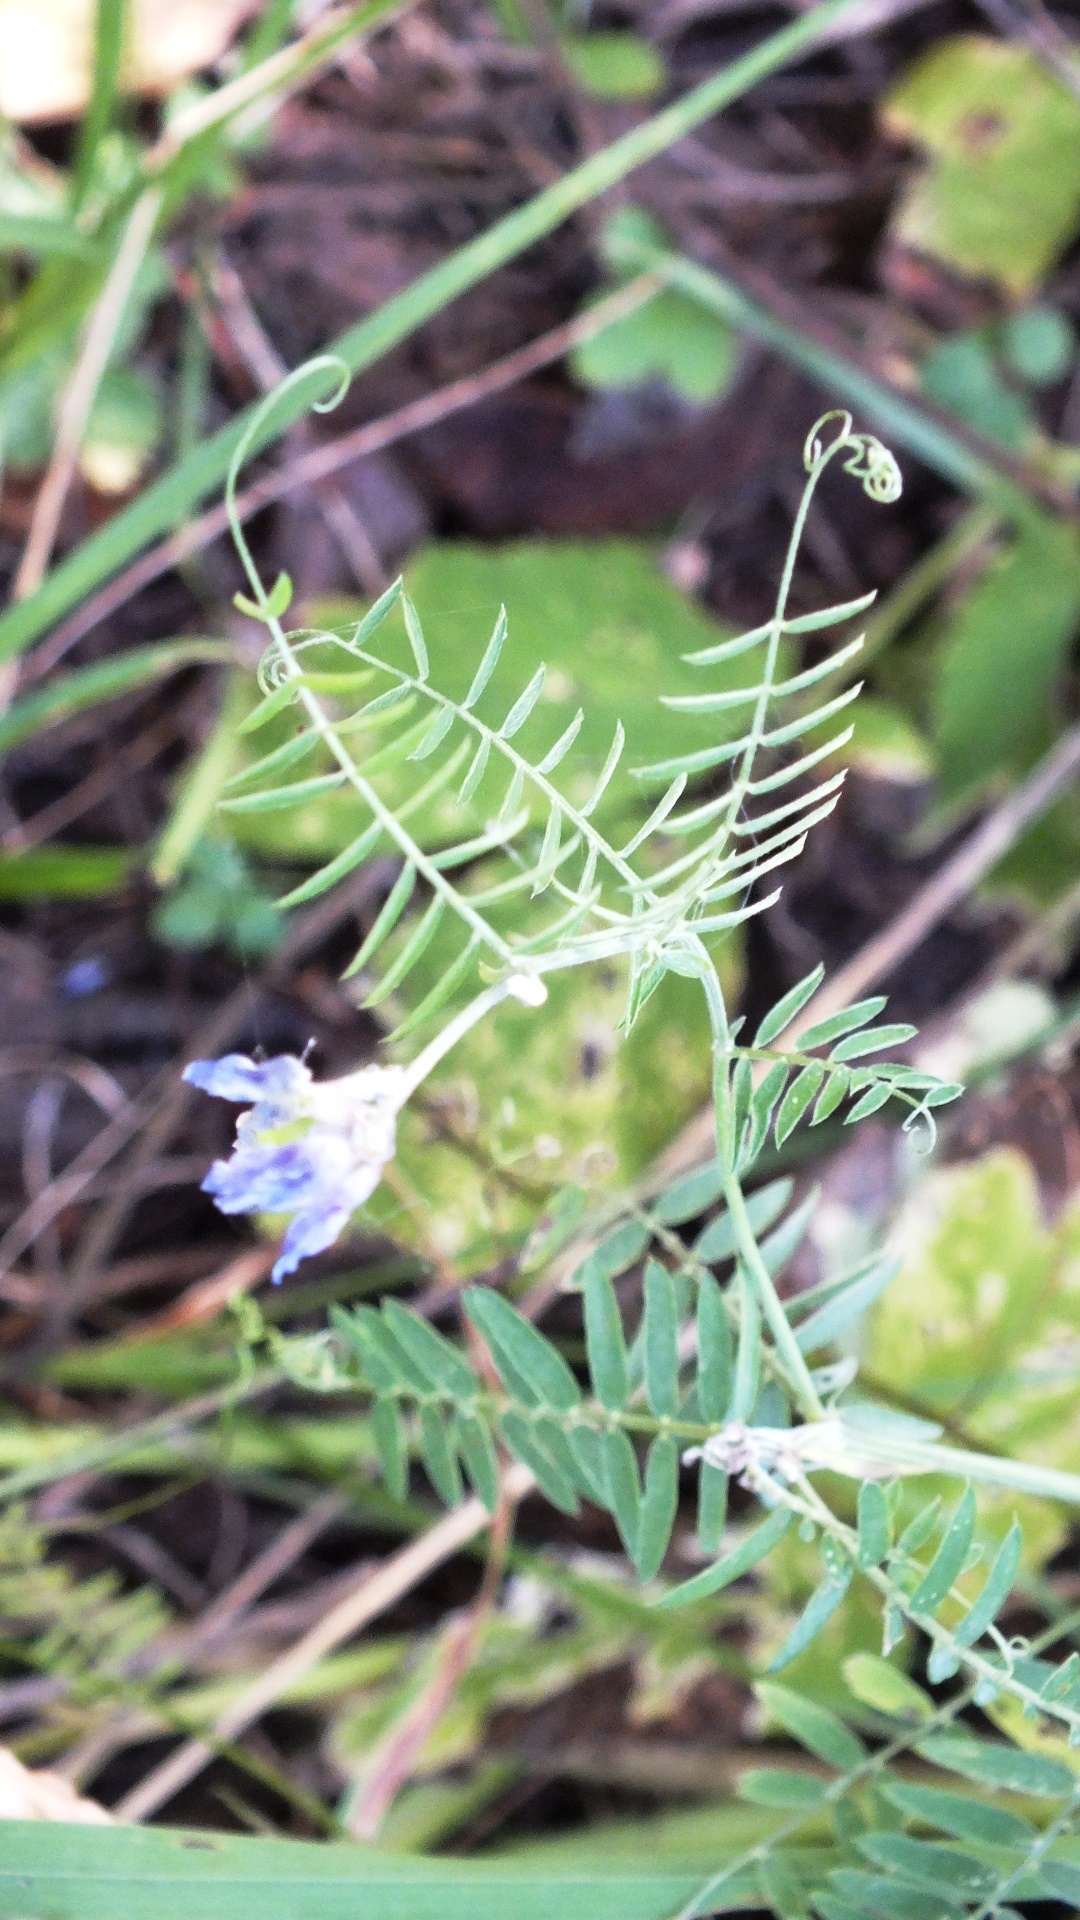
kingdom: Plantae
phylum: Tracheophyta
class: Magnoliopsida
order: Fabales
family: Fabaceae
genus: Vicia
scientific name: Vicia cracca
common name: Bird vetch
